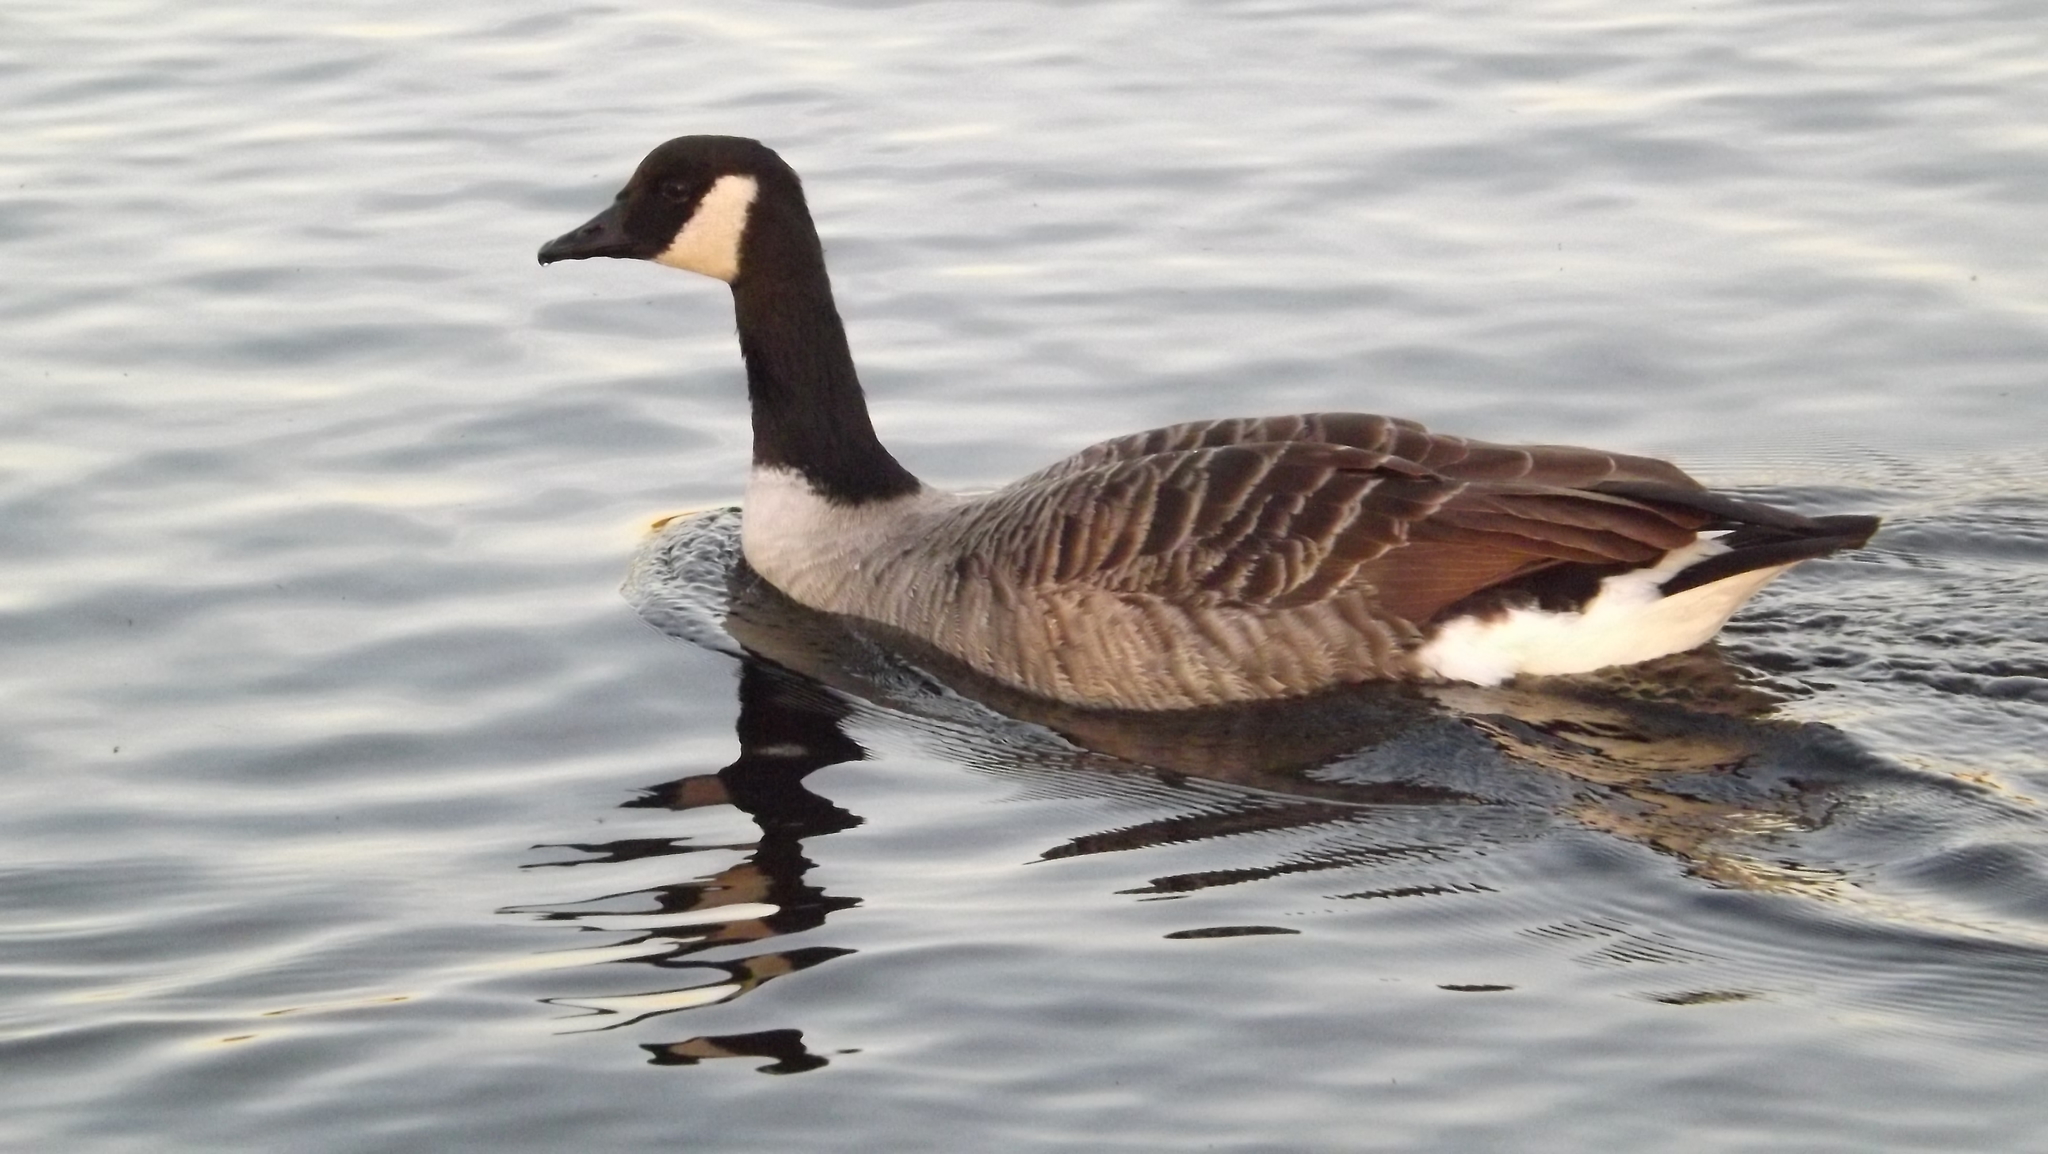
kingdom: Animalia
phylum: Chordata
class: Aves
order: Anseriformes
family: Anatidae
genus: Branta
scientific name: Branta canadensis
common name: Canada goose
